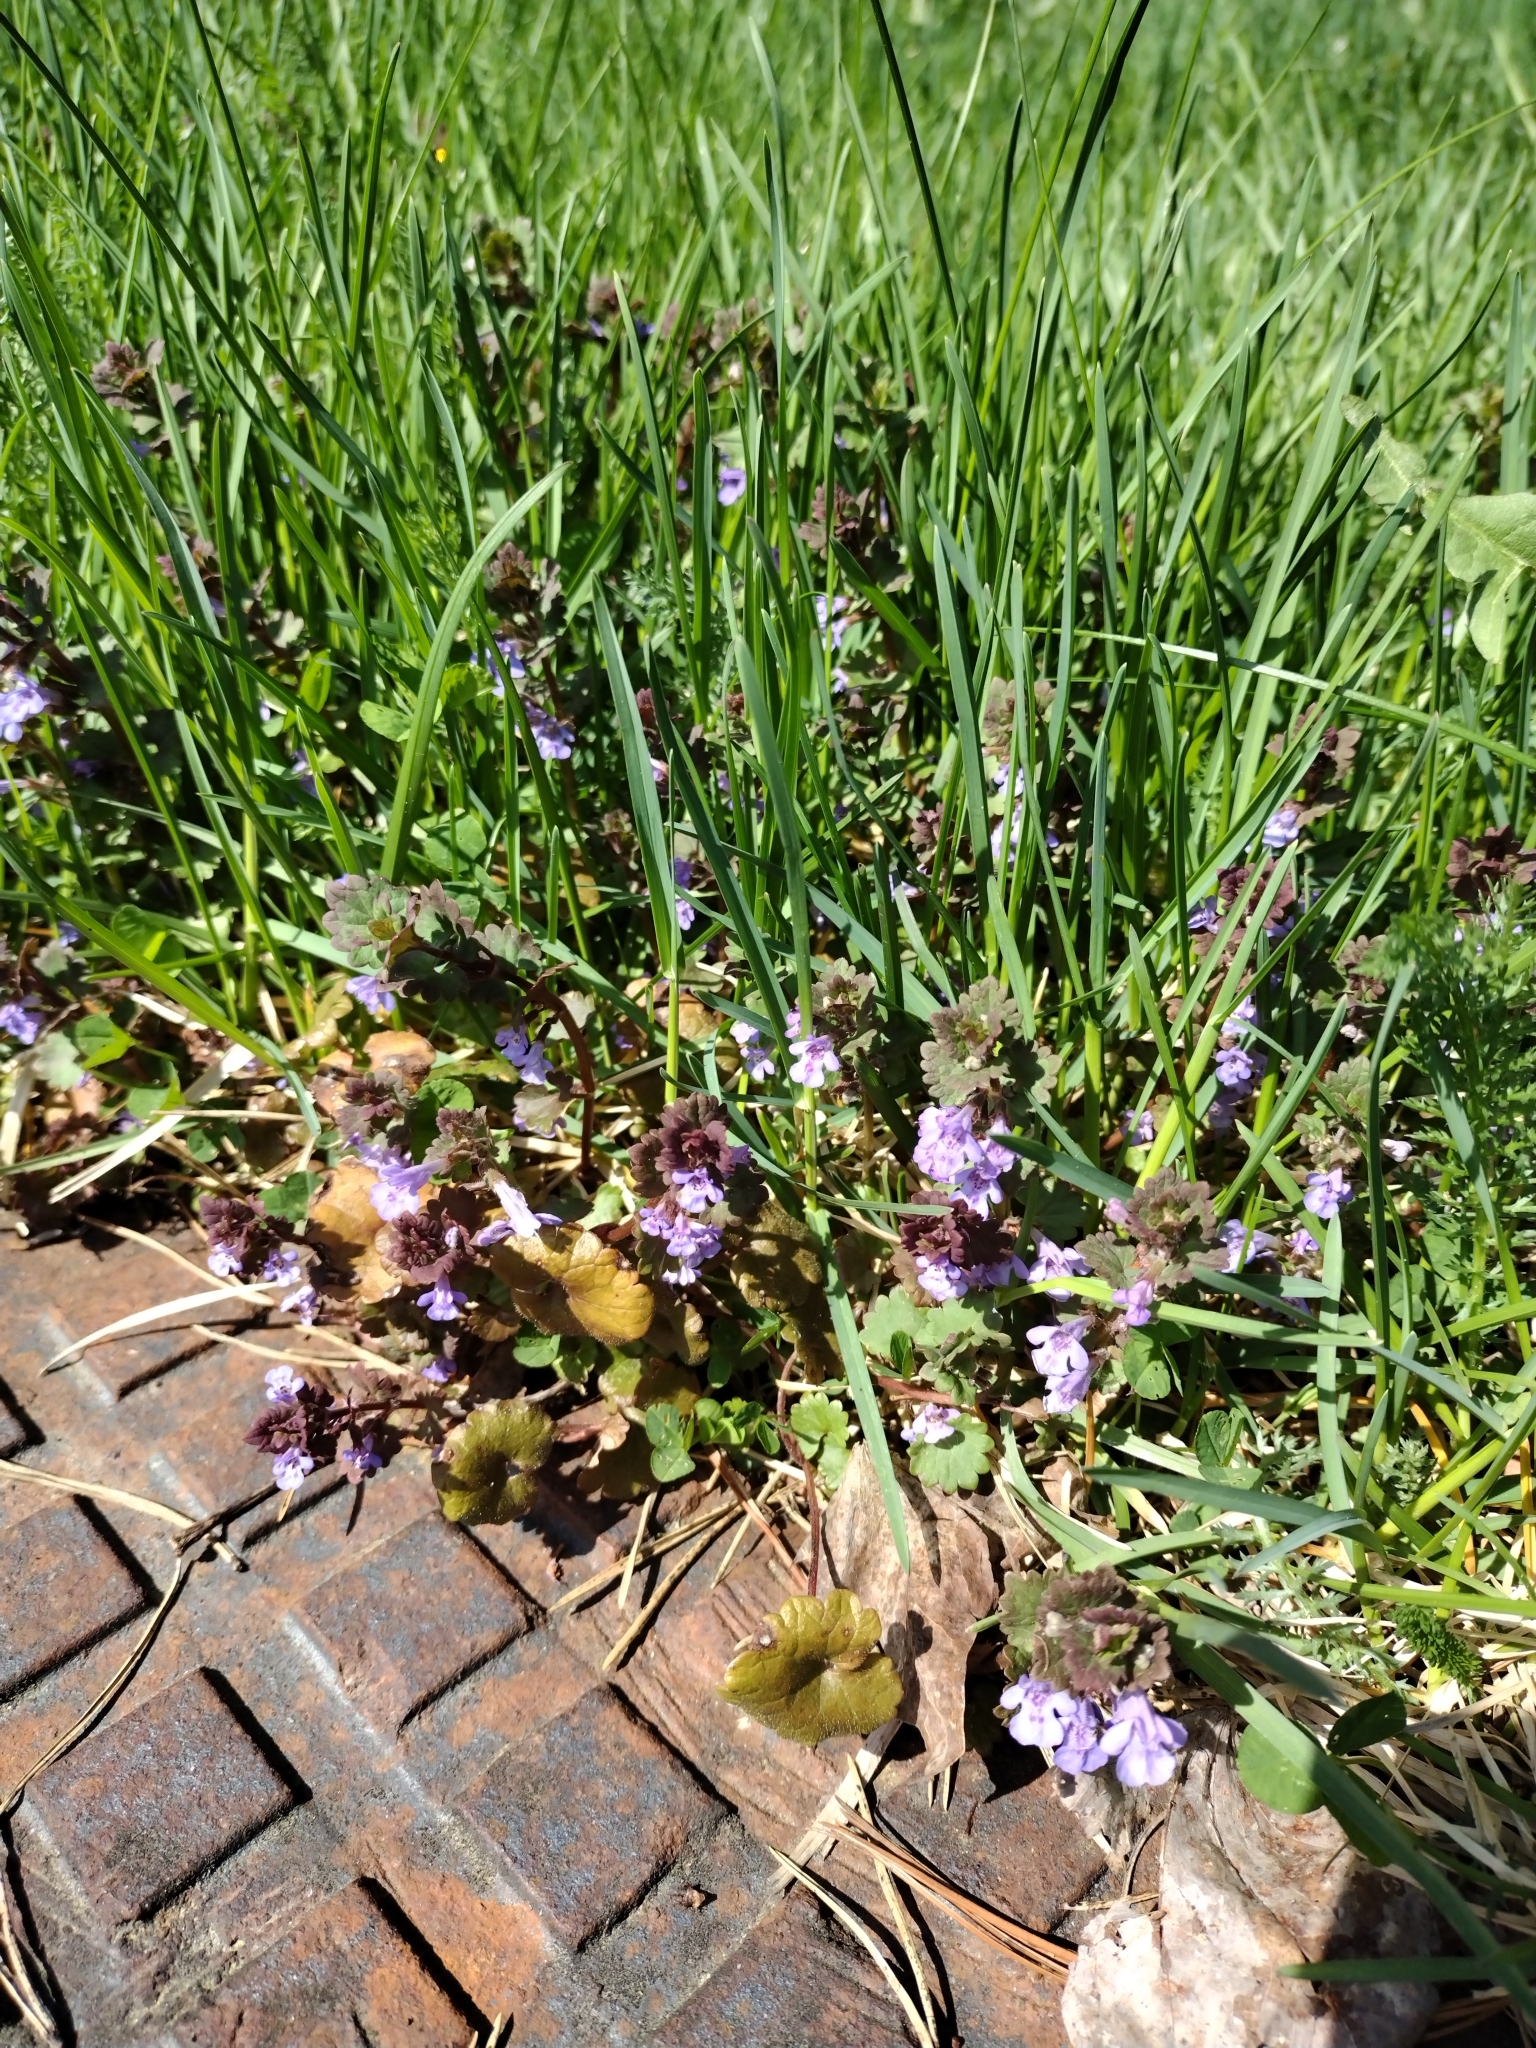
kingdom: Plantae
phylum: Tracheophyta
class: Magnoliopsida
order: Lamiales
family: Lamiaceae
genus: Glechoma
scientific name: Glechoma hederacea
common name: Ground ivy
